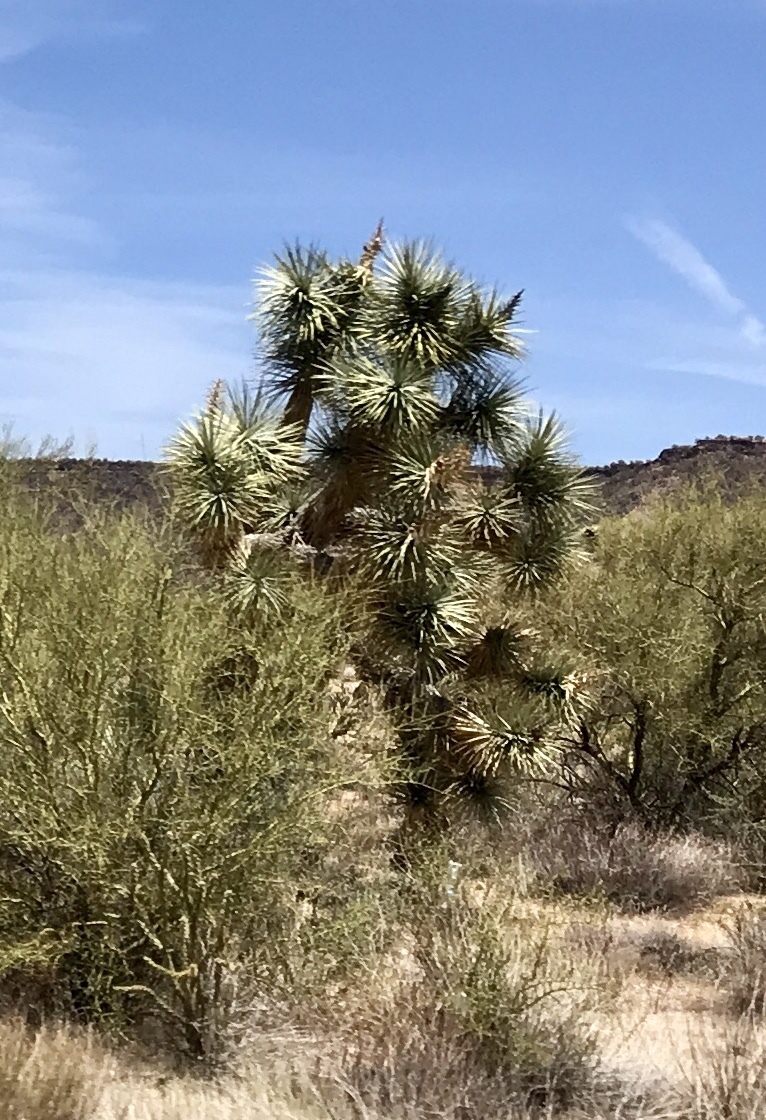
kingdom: Plantae
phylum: Tracheophyta
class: Liliopsida
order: Asparagales
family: Asparagaceae
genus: Yucca
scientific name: Yucca brevifolia
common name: Joshua tree
